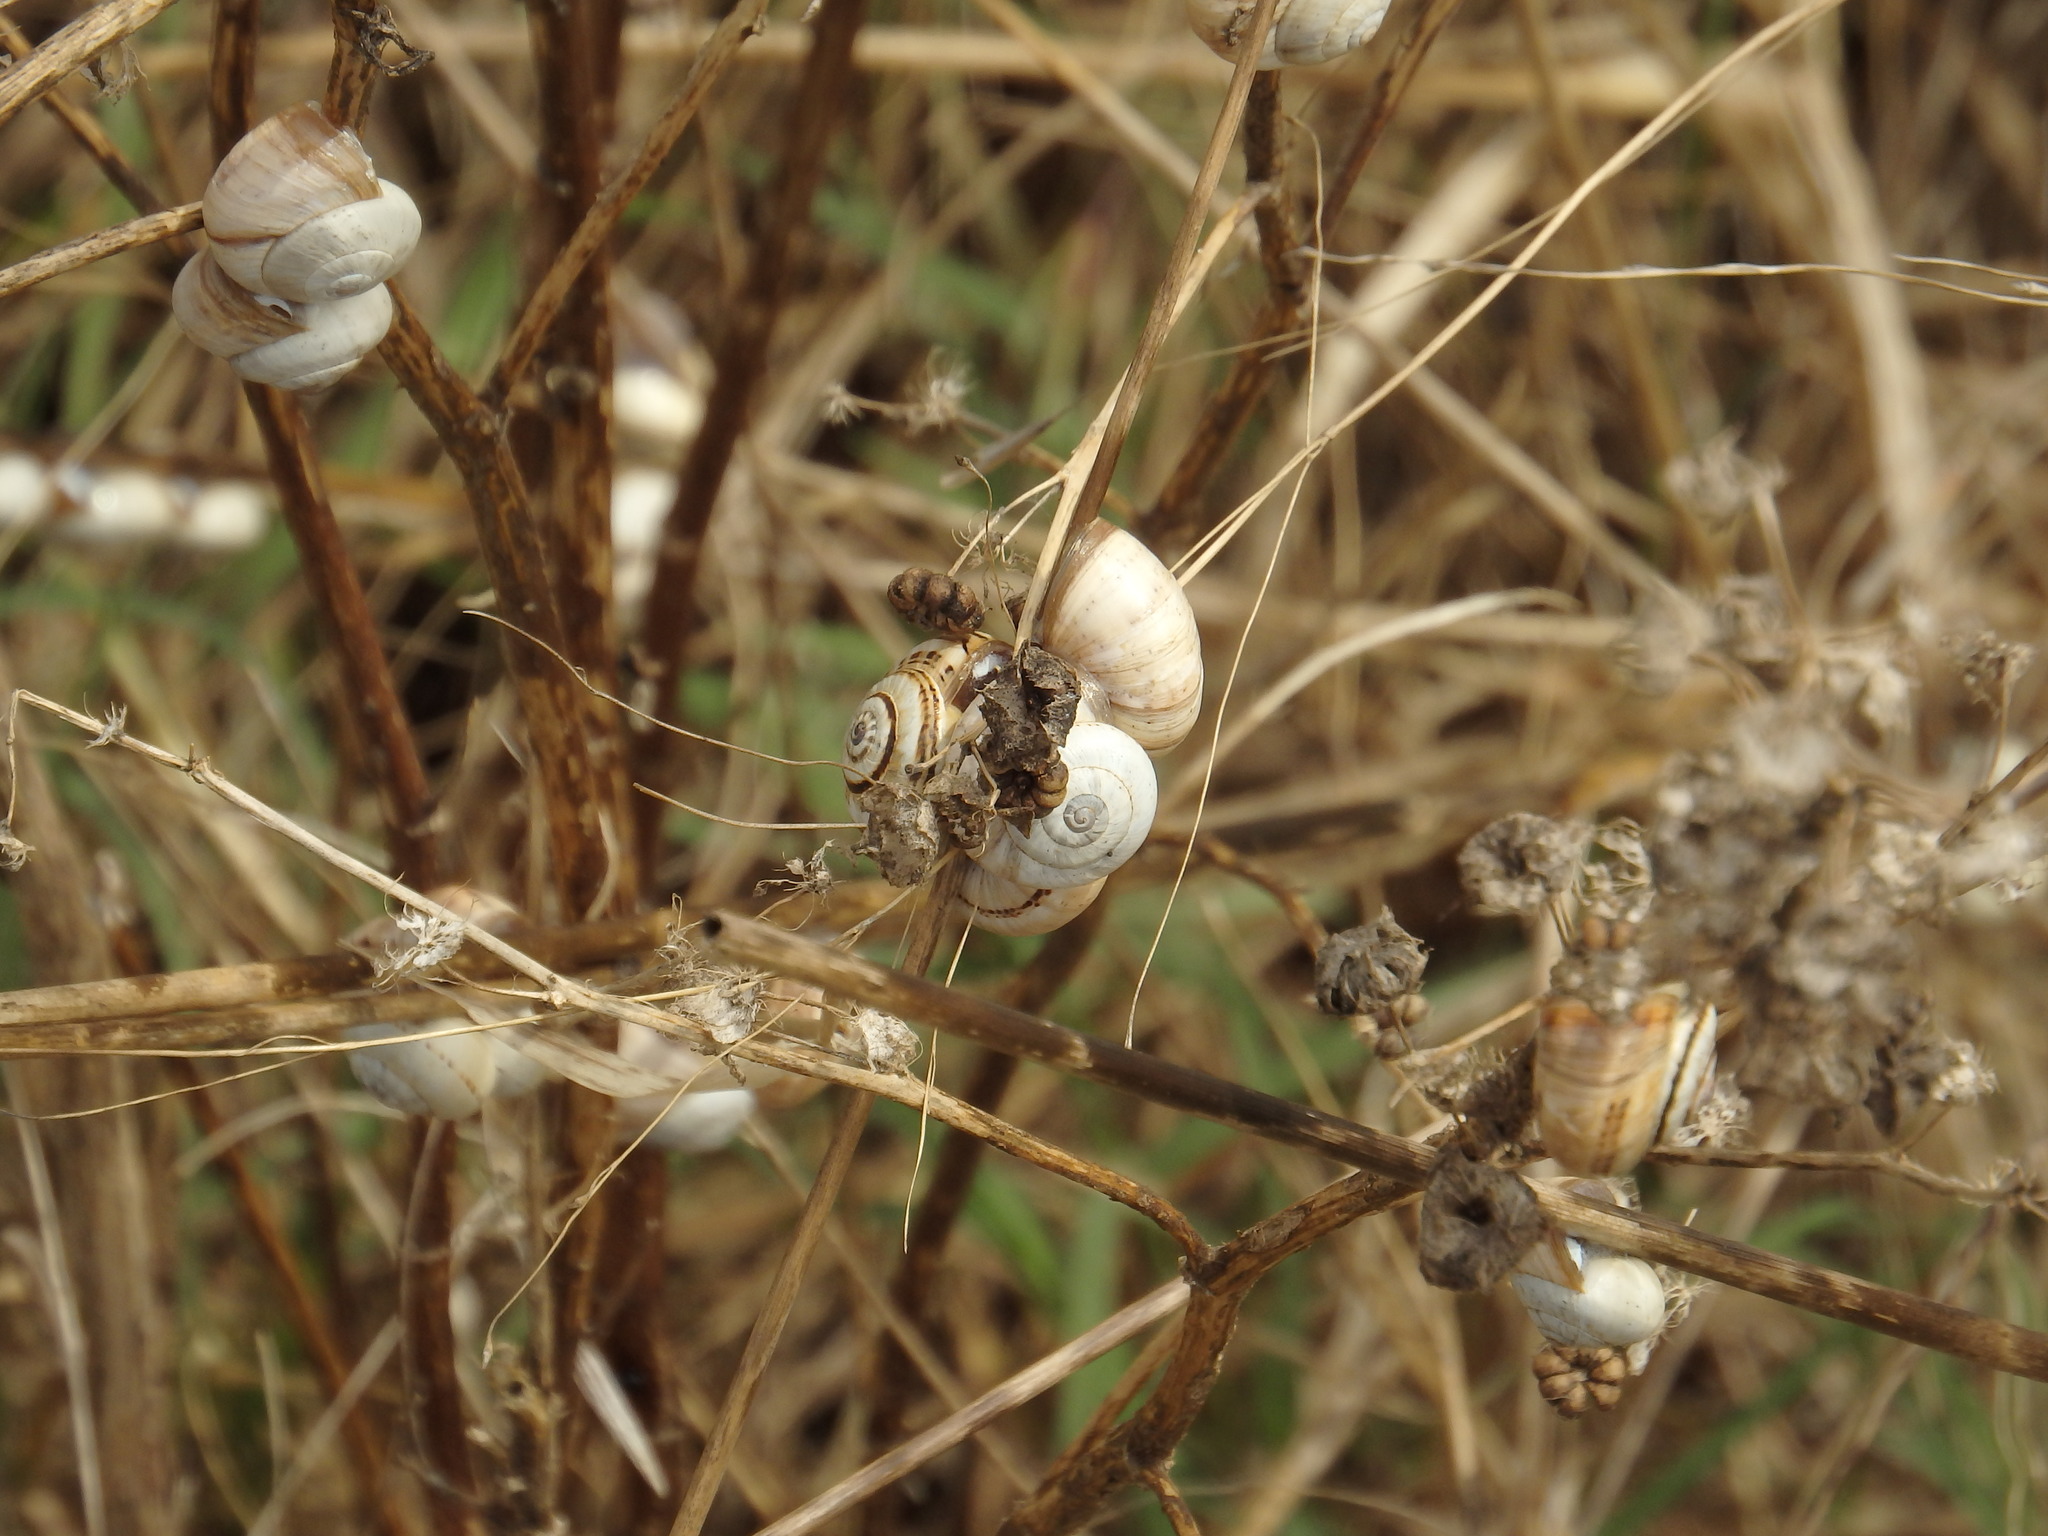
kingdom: Animalia
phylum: Mollusca
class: Gastropoda
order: Stylommatophora
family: Helicidae
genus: Theba
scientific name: Theba pisana
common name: White snail
